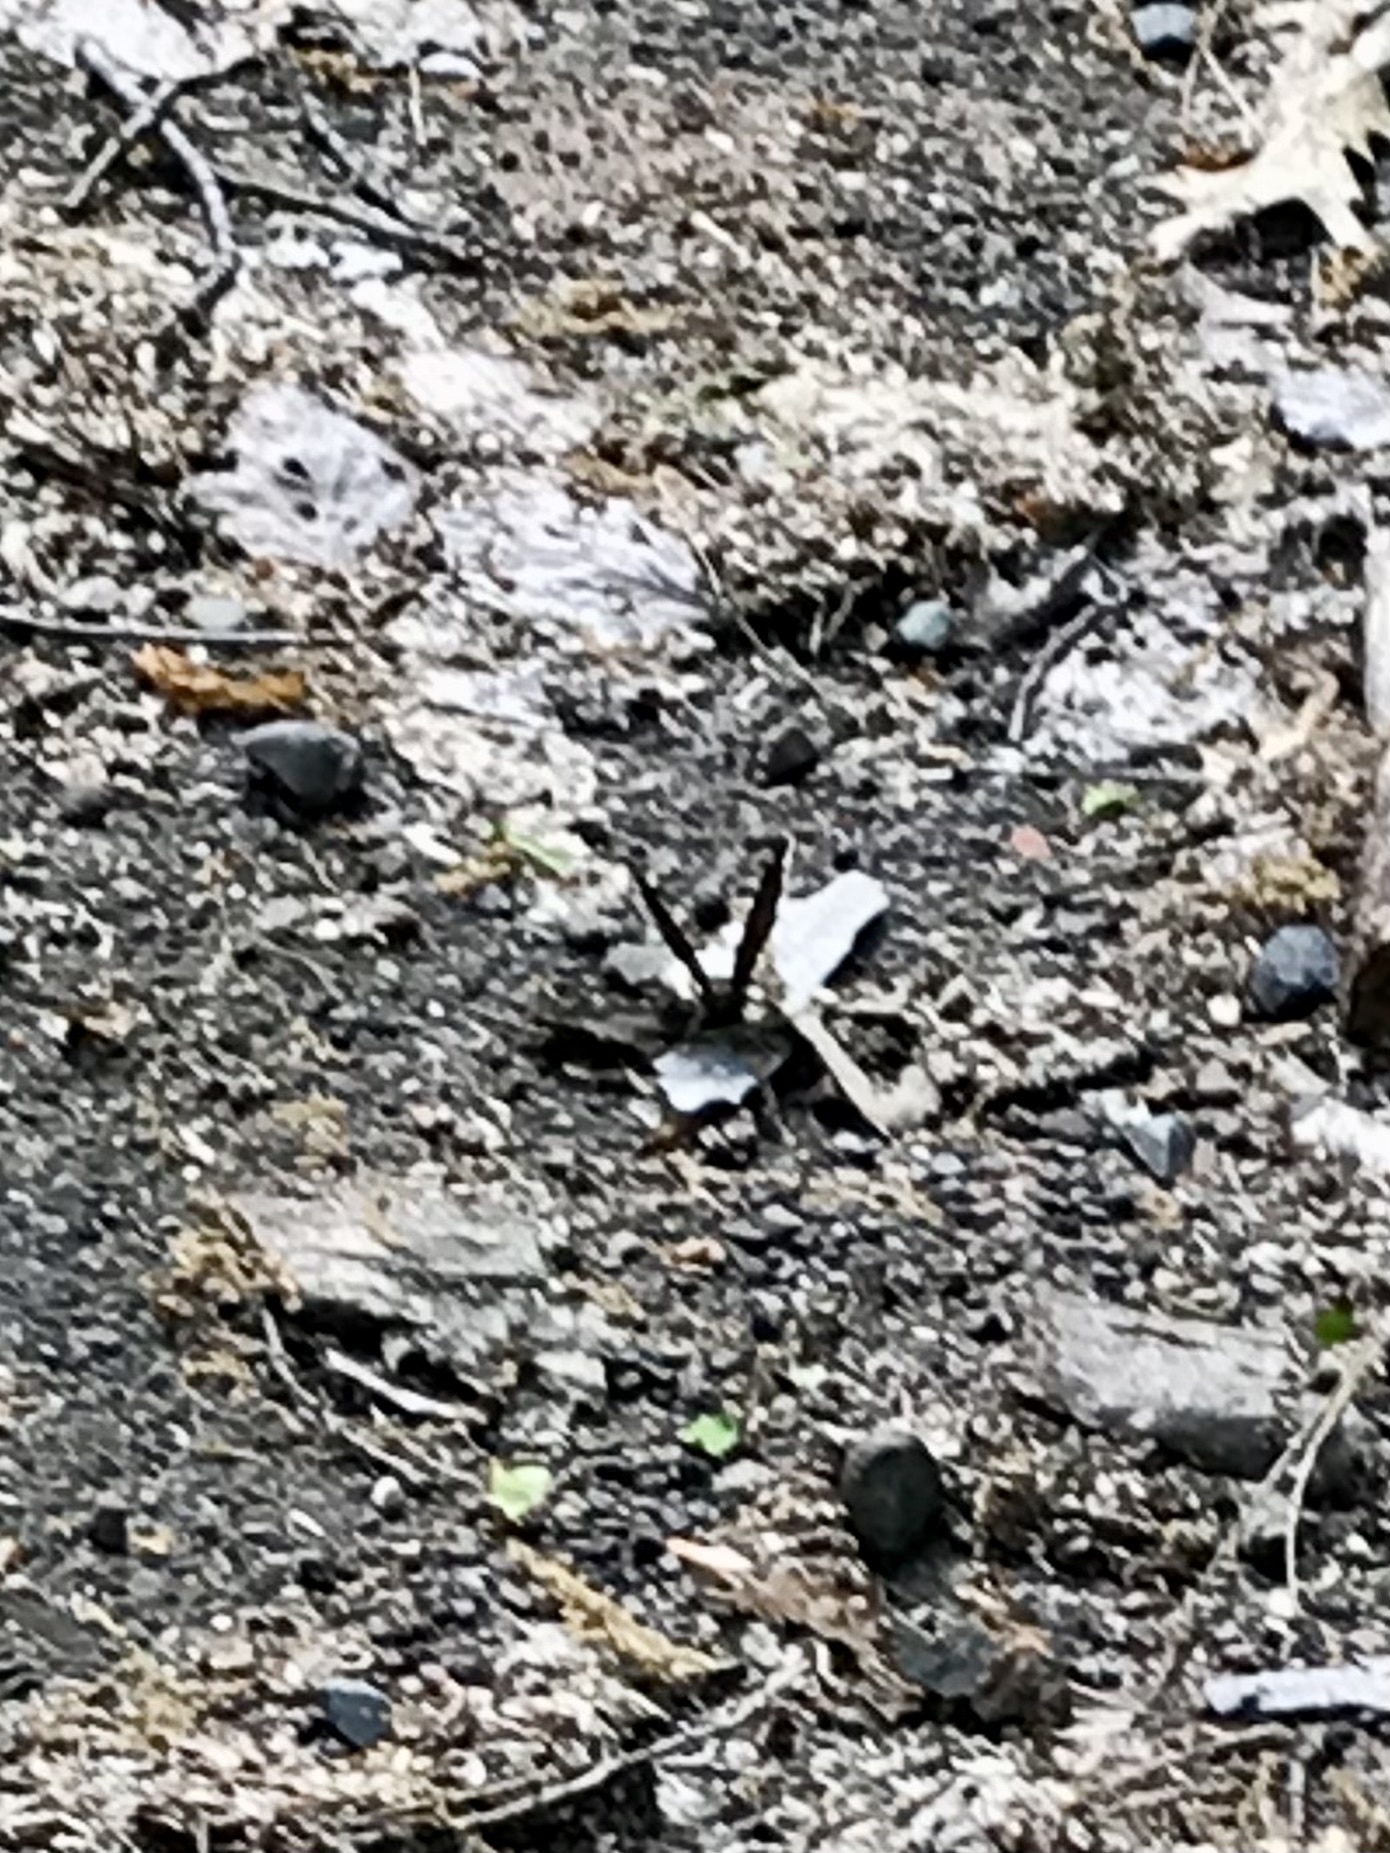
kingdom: Animalia
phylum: Arthropoda
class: Insecta
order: Lepidoptera
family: Nymphalidae
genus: Nymphalis
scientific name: Nymphalis antiopa
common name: Camberwell beauty
